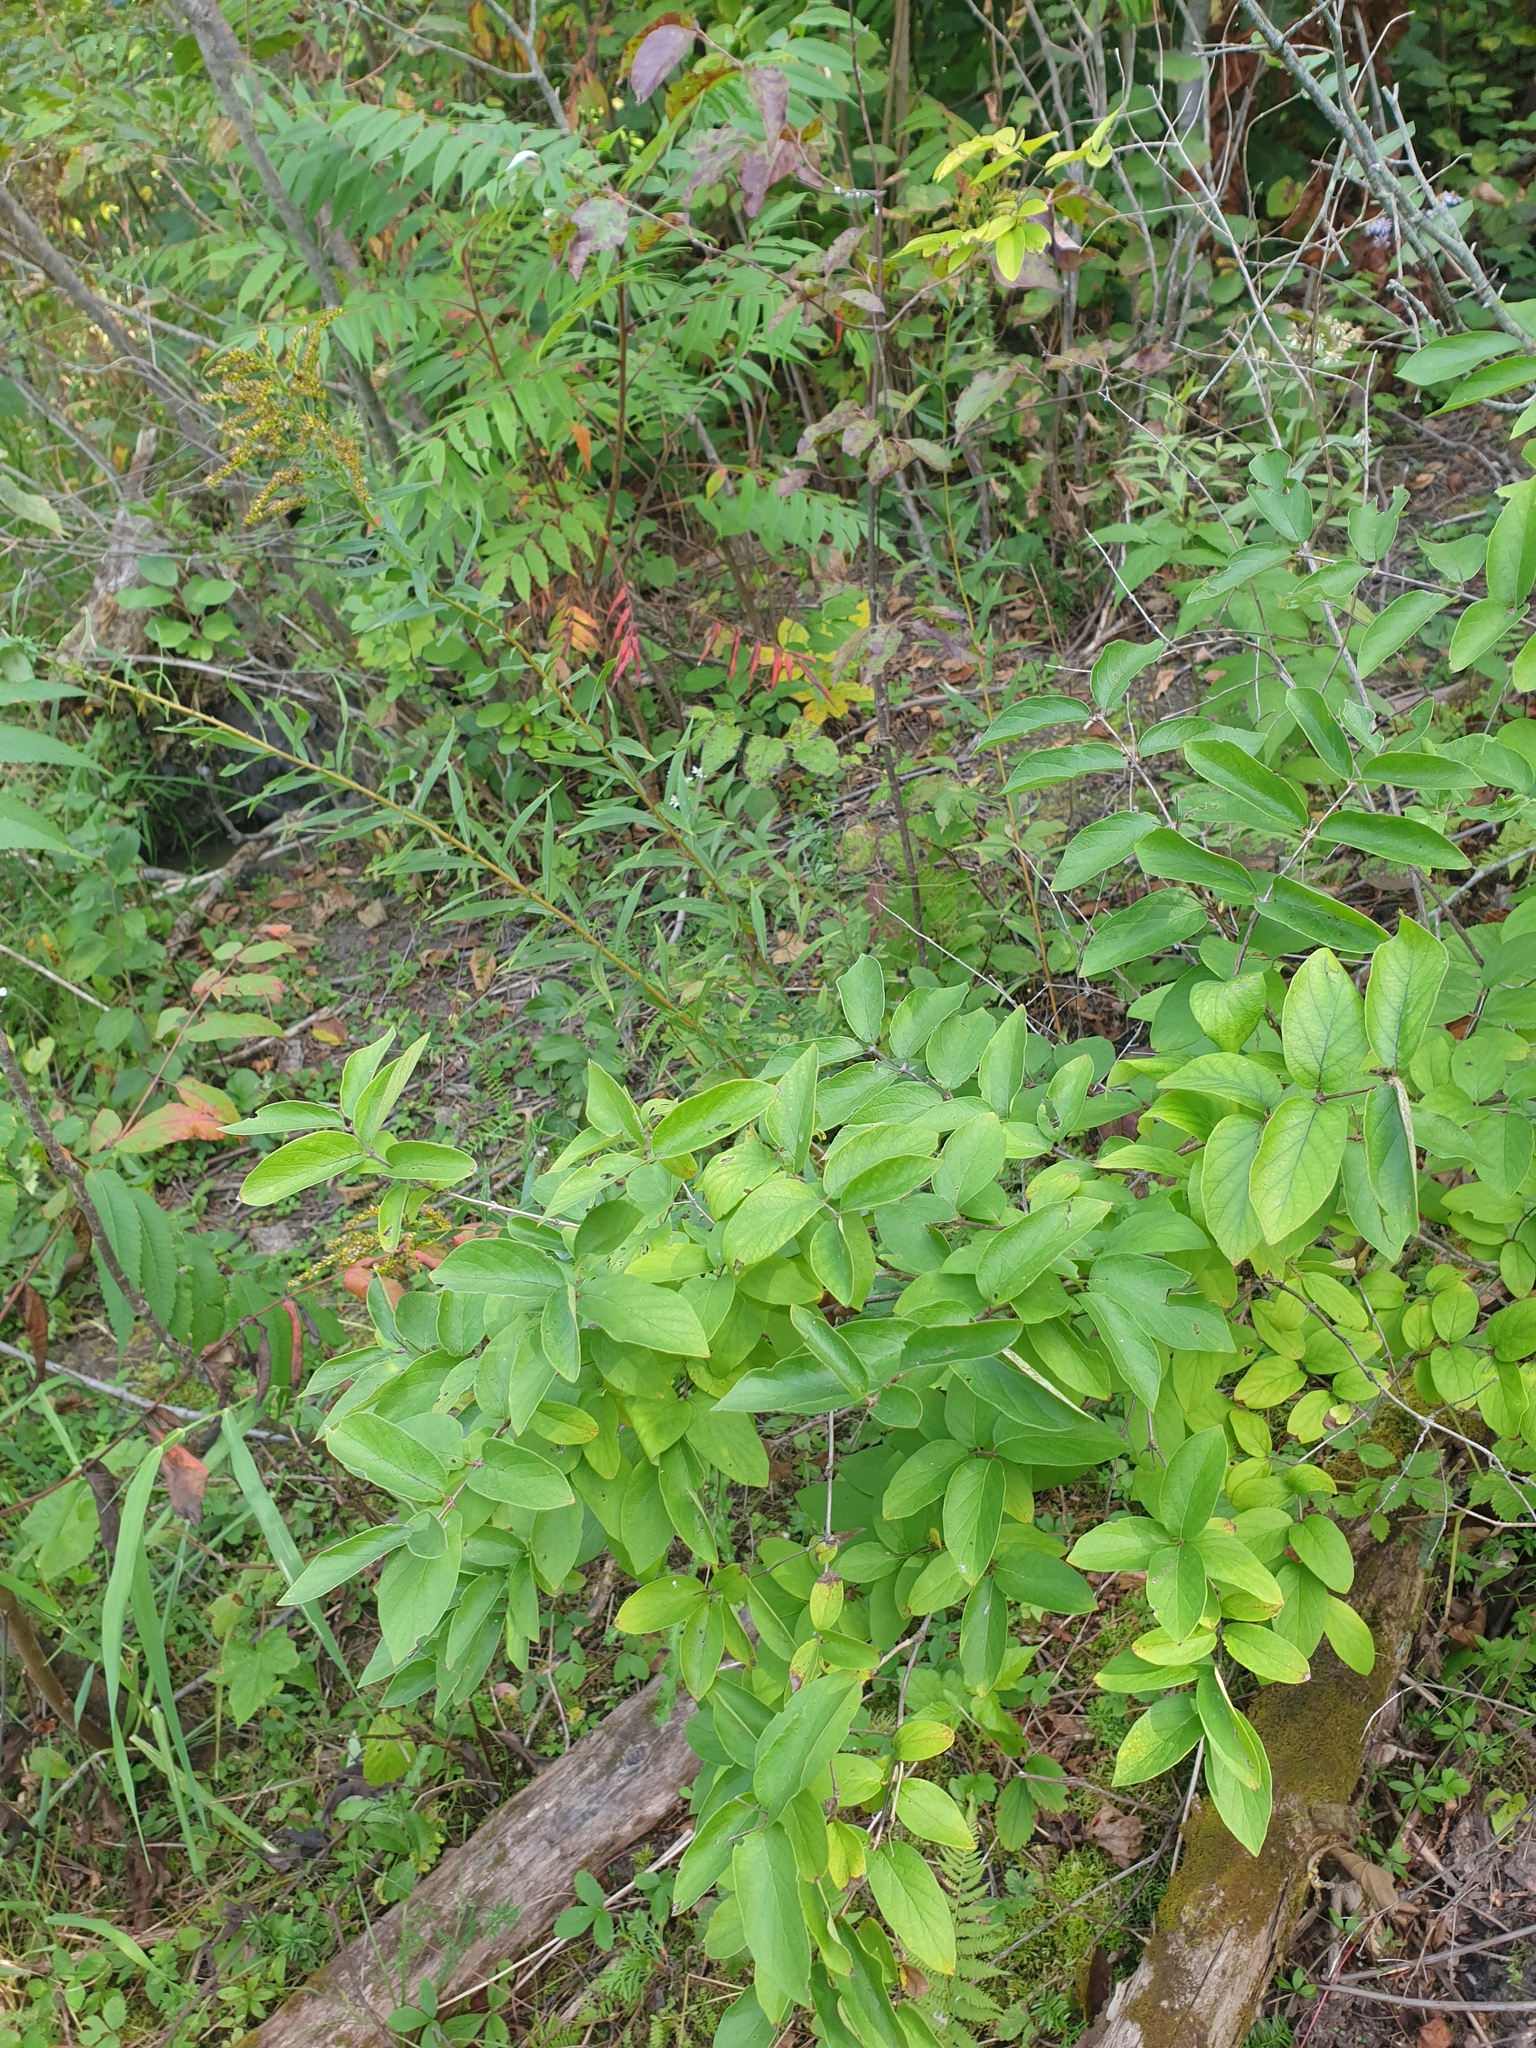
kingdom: Plantae
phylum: Tracheophyta
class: Magnoliopsida
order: Sapindales
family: Anacardiaceae
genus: Rhus
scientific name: Rhus typhina
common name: Staghorn sumac
